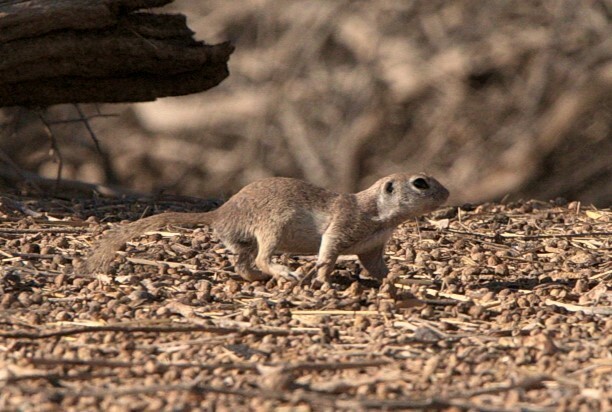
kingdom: Animalia
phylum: Chordata
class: Mammalia
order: Rodentia
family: Sciuridae
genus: Xerospermophilus
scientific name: Xerospermophilus tereticaudus
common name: Round-tailed ground squirrel
